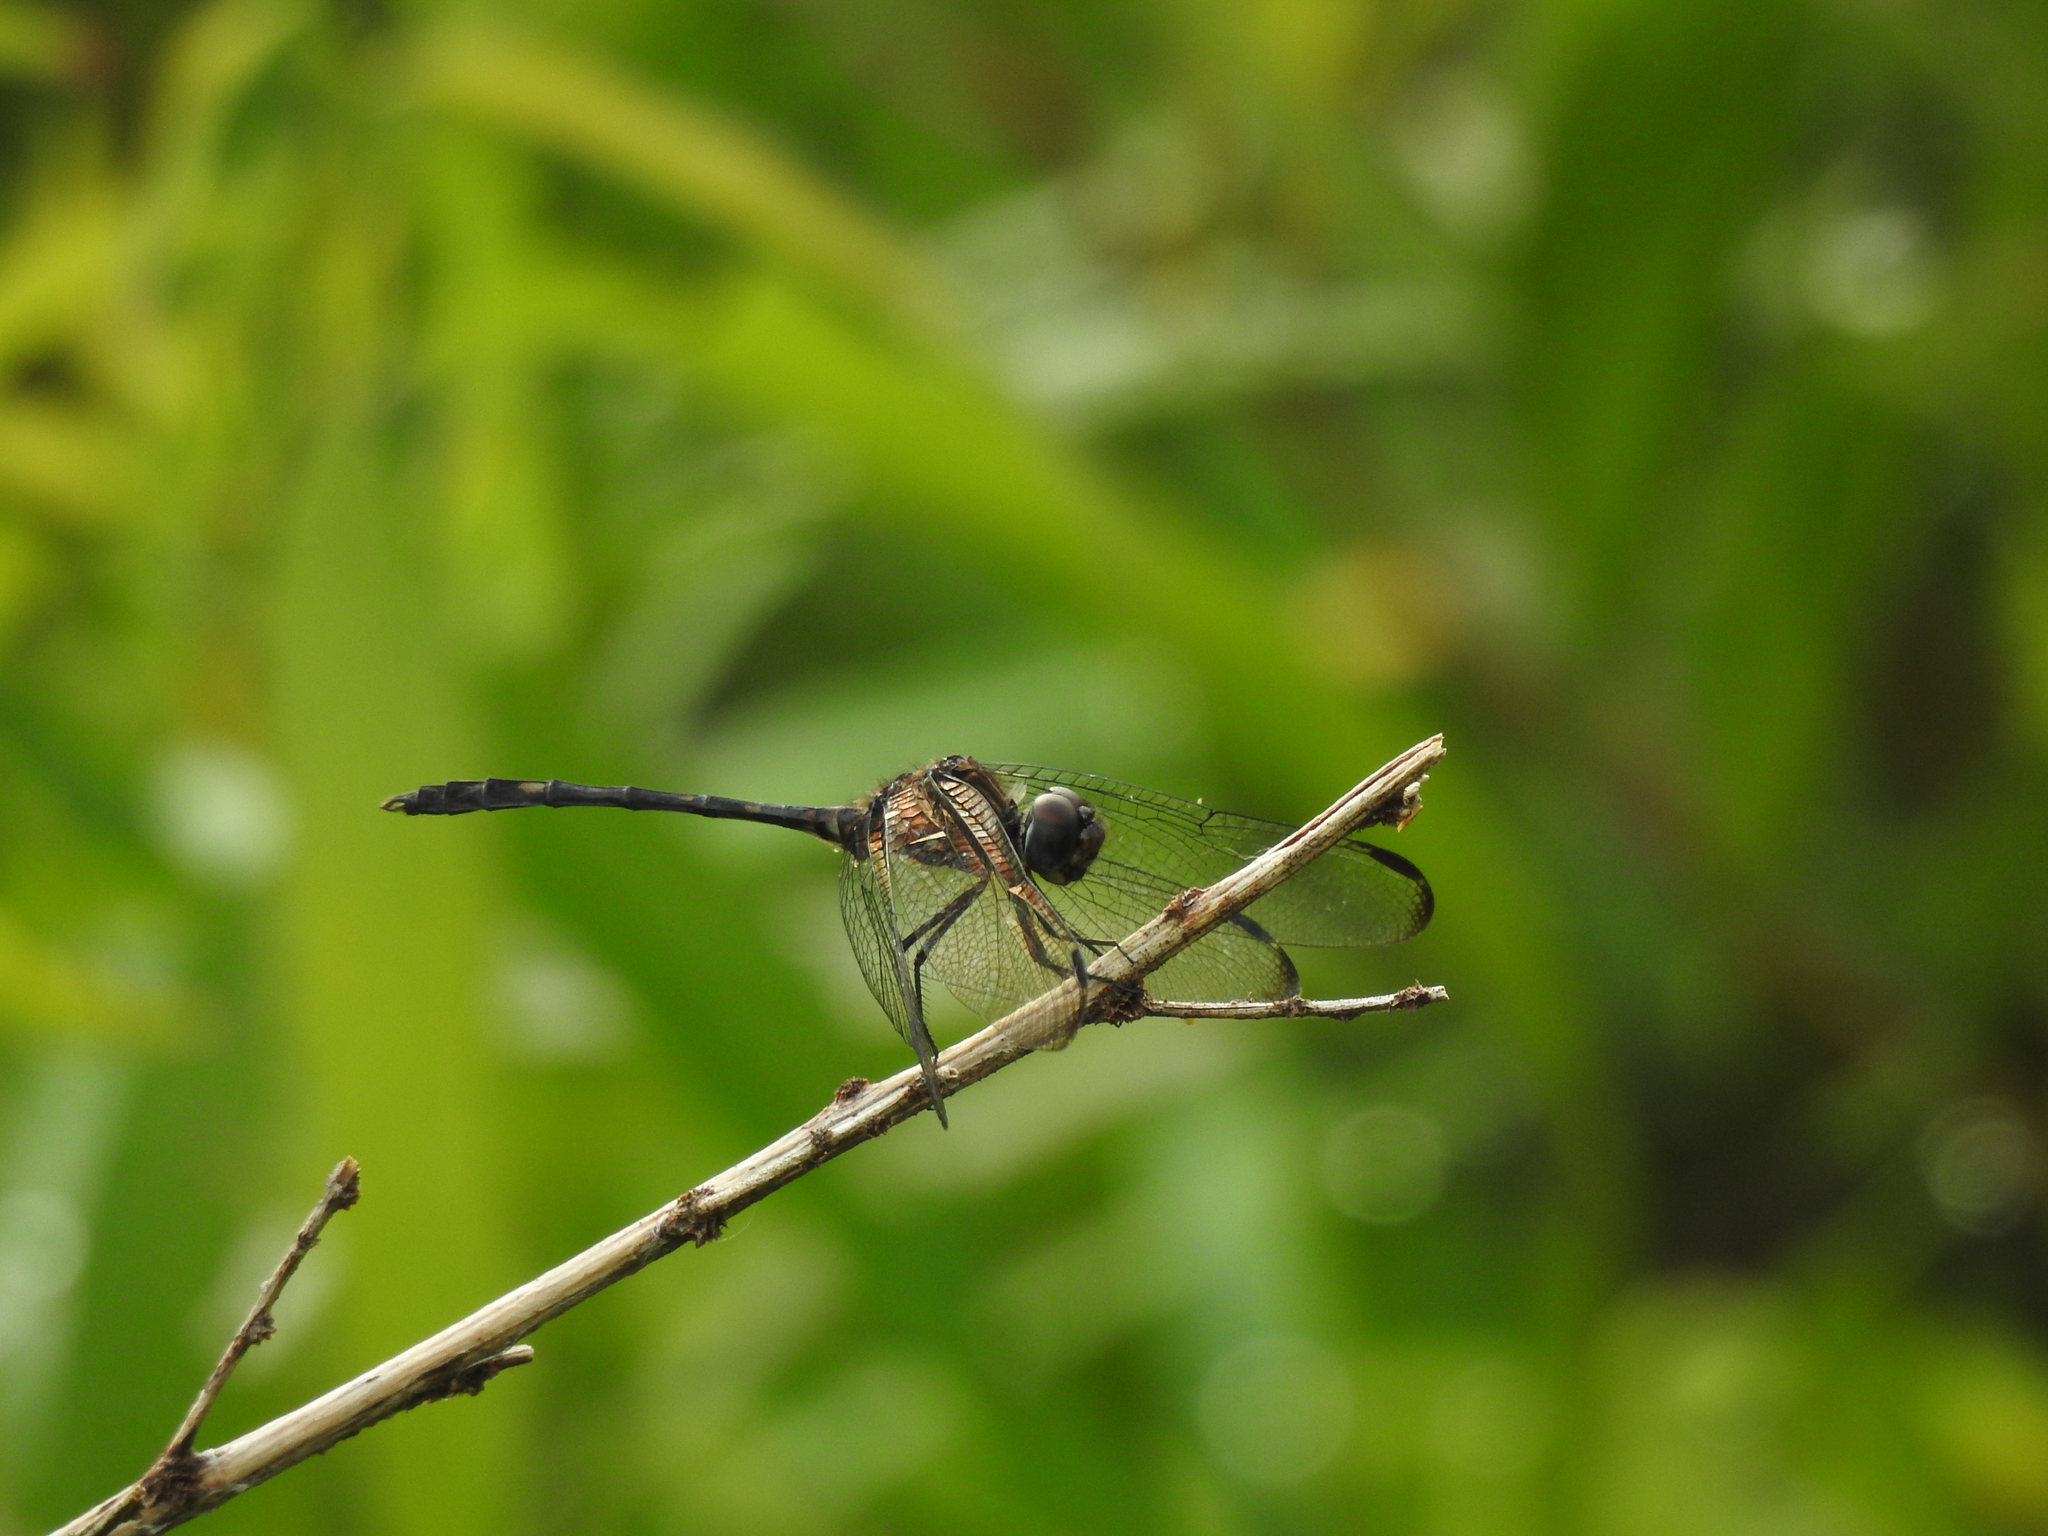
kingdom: Animalia
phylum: Arthropoda
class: Insecta
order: Odonata
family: Libellulidae
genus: Dythemis
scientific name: Dythemis velox
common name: Swift setwing
